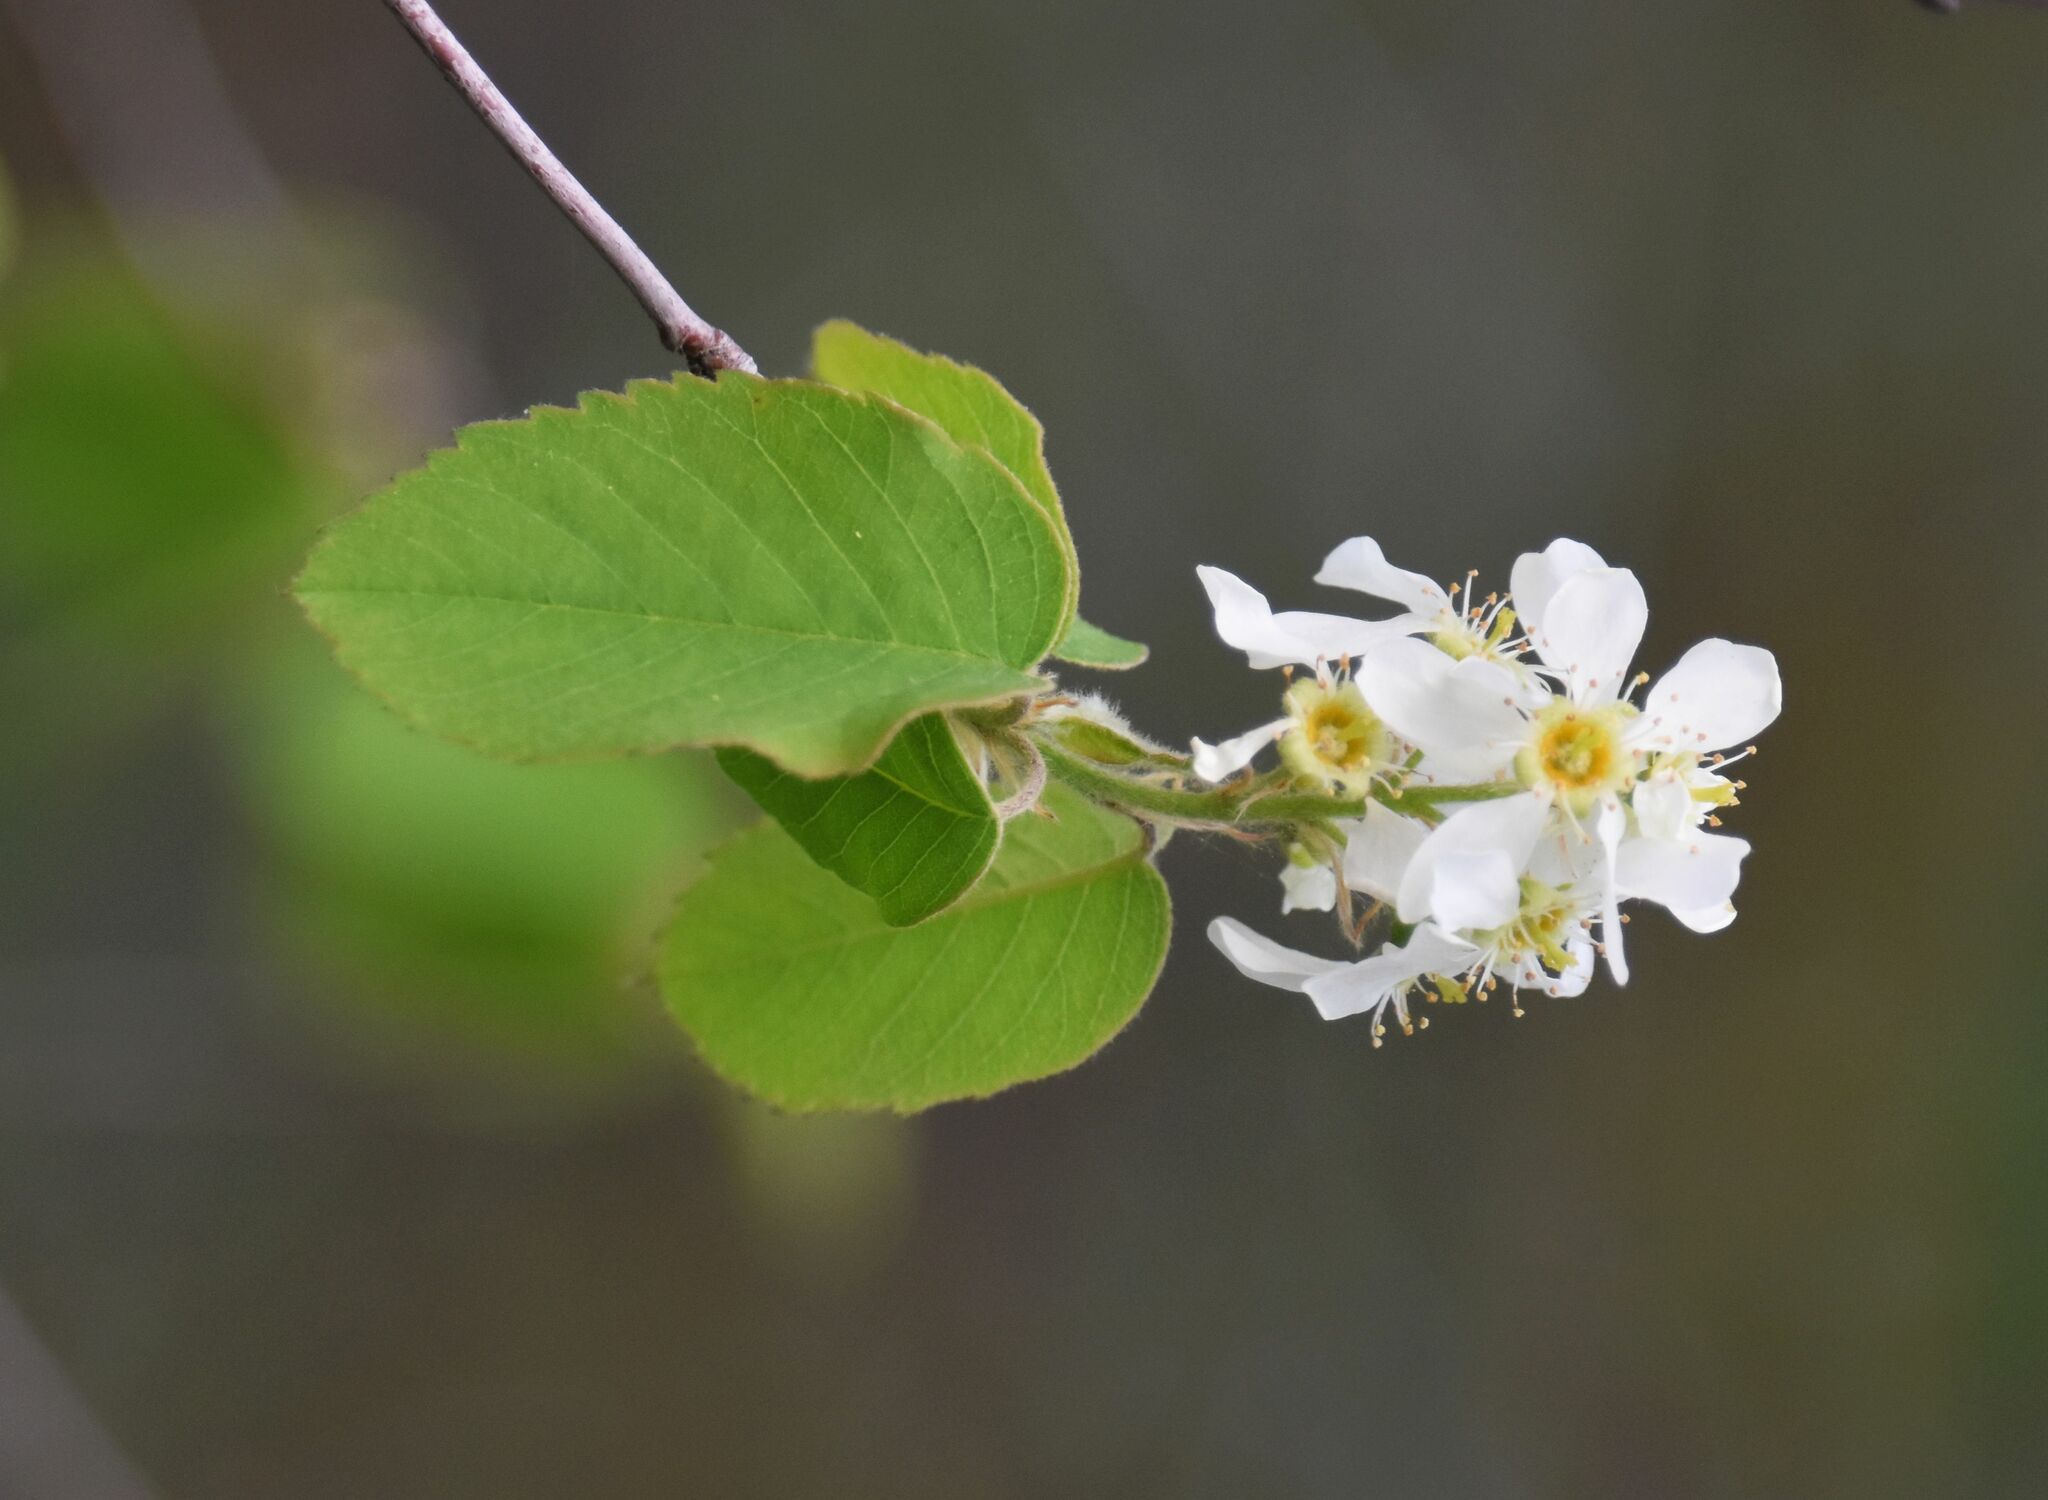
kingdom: Plantae
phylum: Tracheophyta
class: Magnoliopsida
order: Rosales
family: Rosaceae
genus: Amelanchier
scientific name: Amelanchier alnifolia
